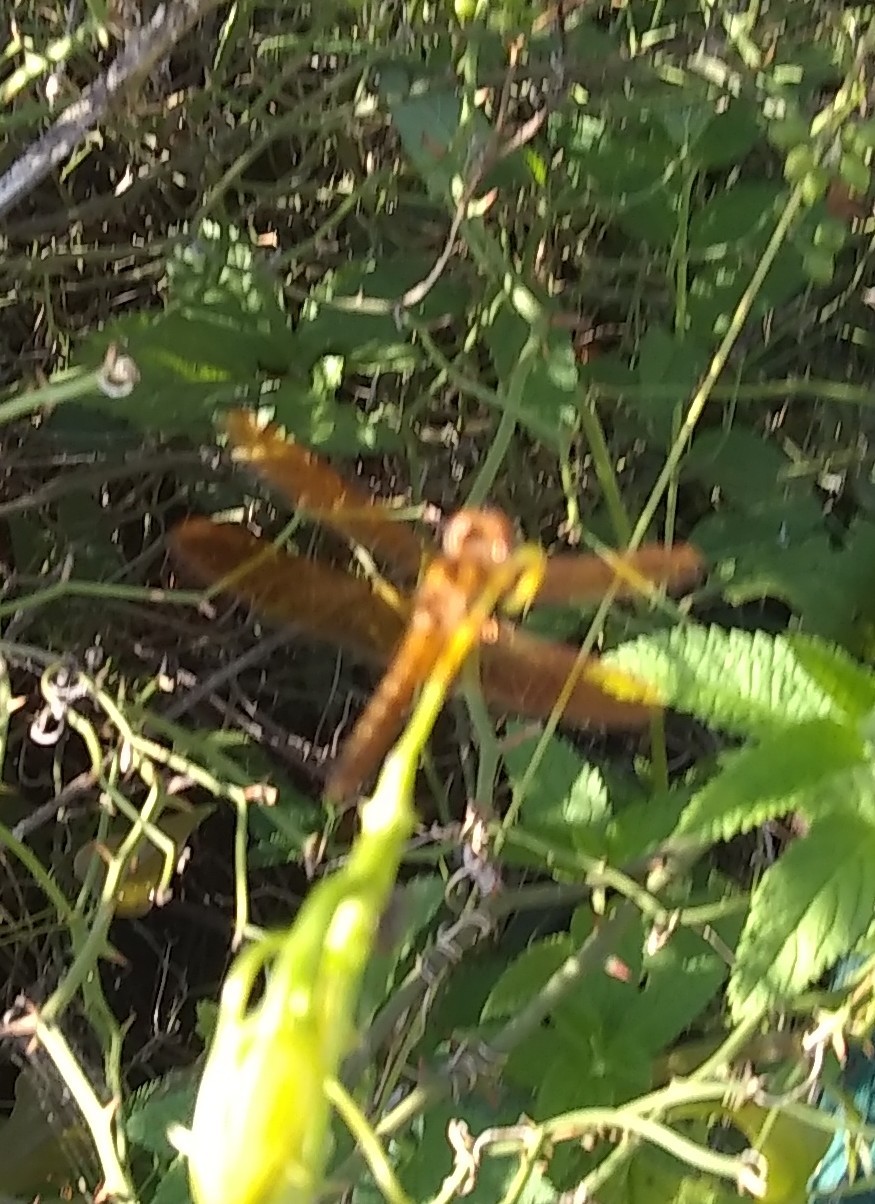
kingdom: Animalia
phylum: Arthropoda
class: Insecta
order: Odonata
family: Libellulidae
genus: Perithemis
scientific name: Perithemis tenera
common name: Eastern amberwing
